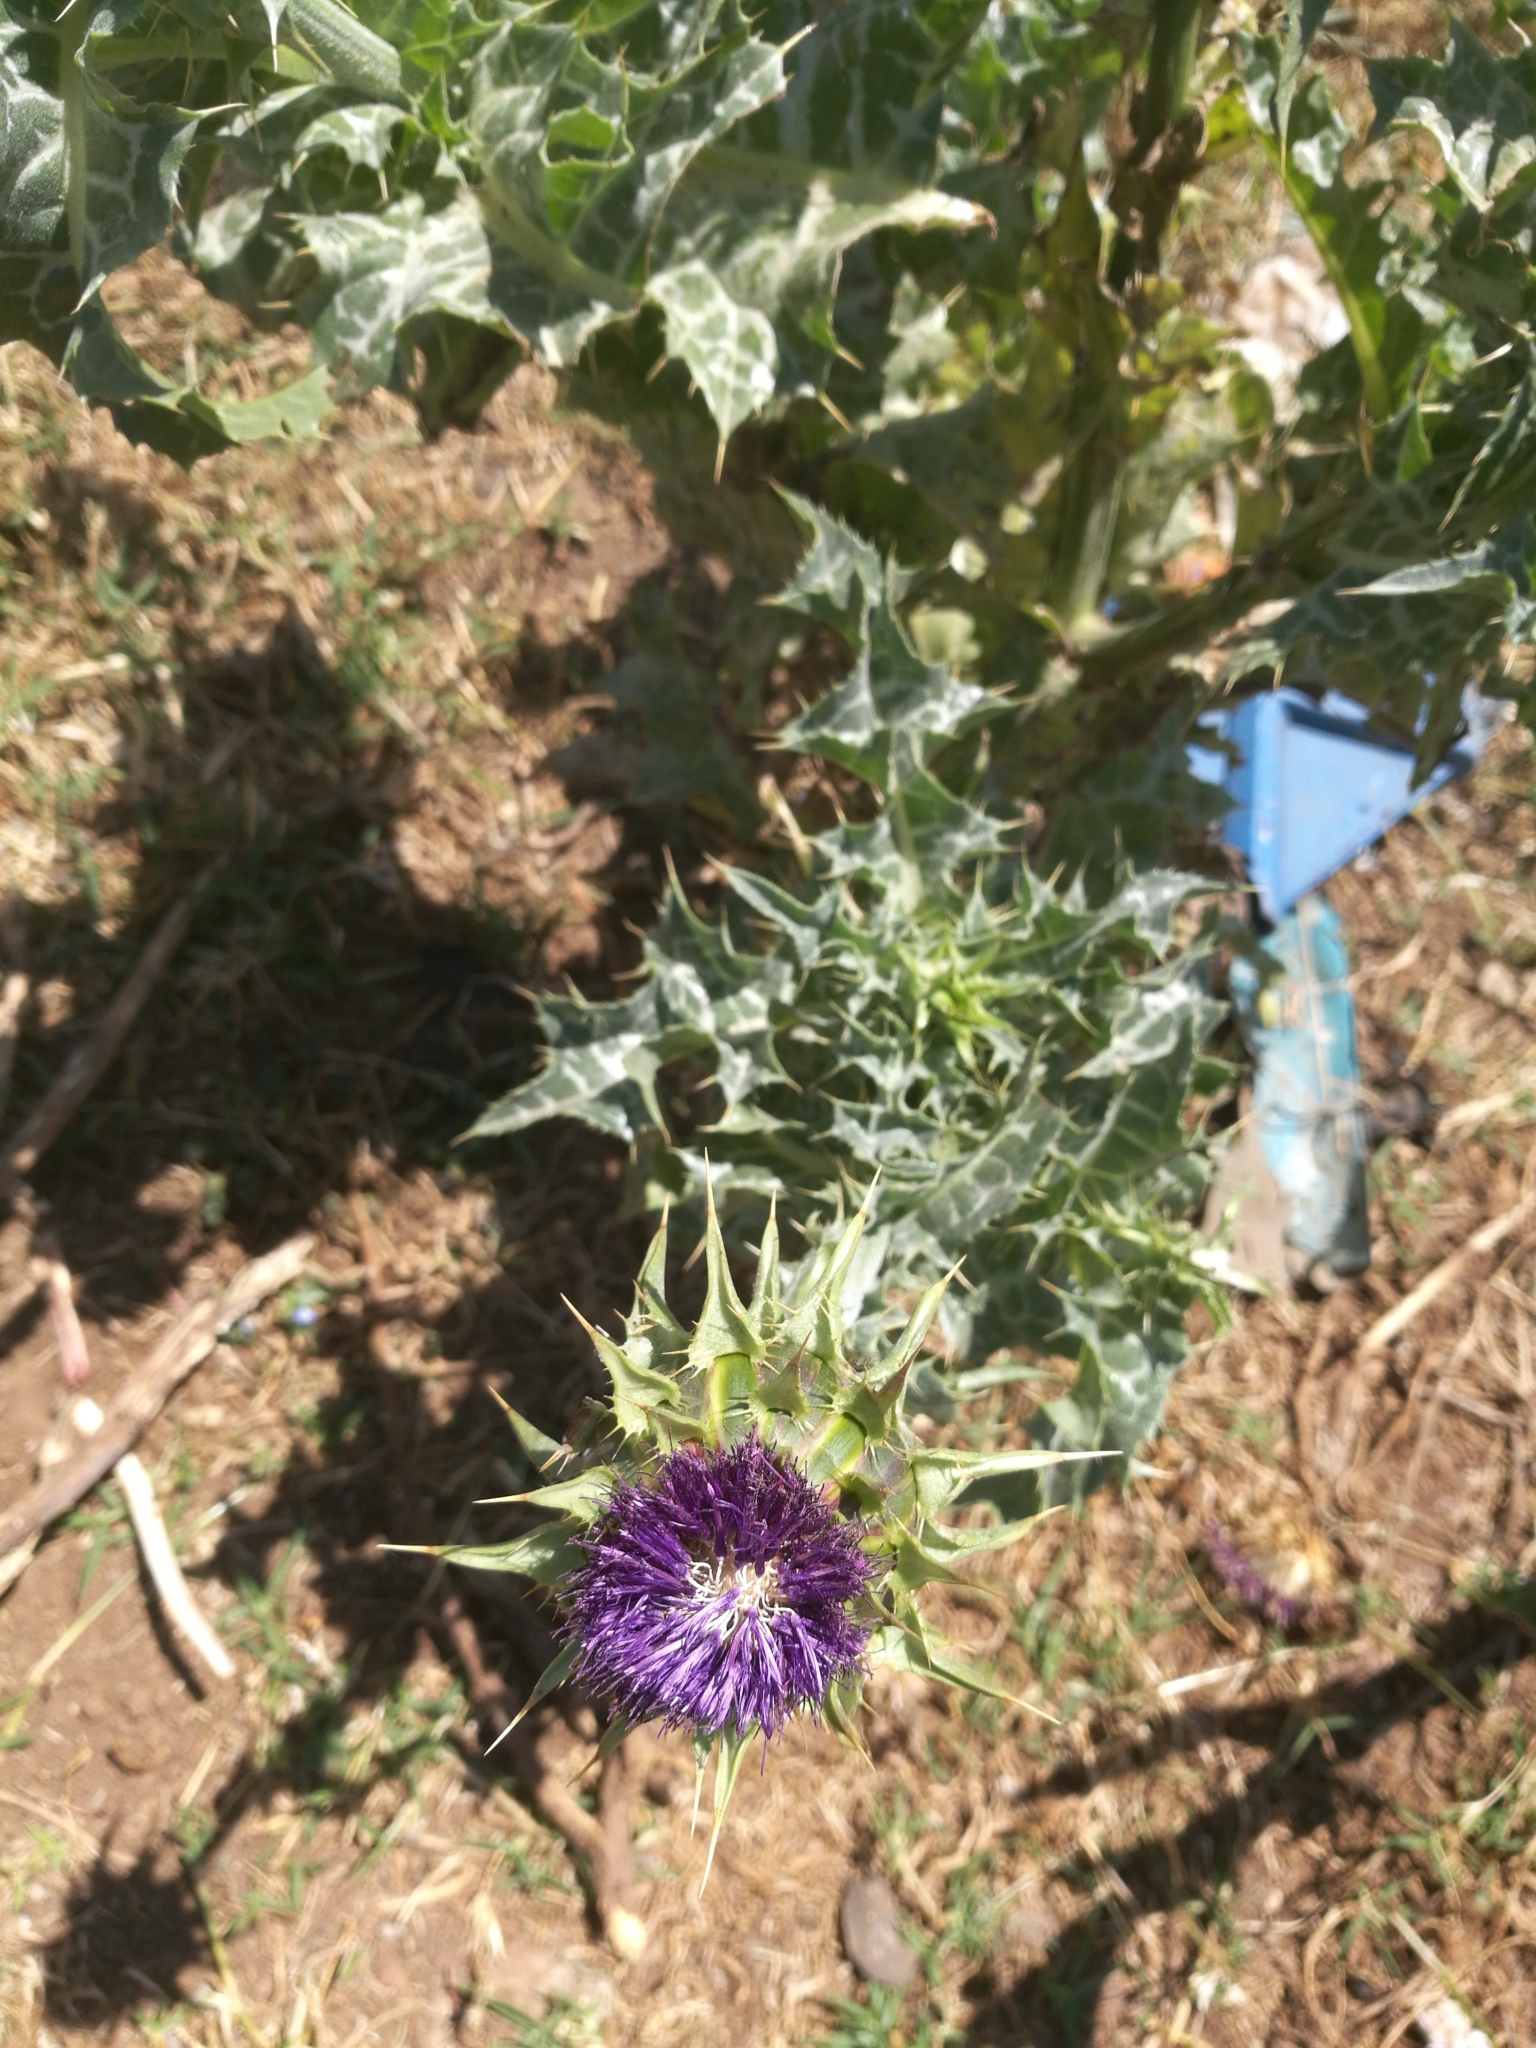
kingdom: Plantae
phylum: Tracheophyta
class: Magnoliopsida
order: Asterales
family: Asteraceae
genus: Silybum
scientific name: Silybum marianum
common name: Milk thistle
